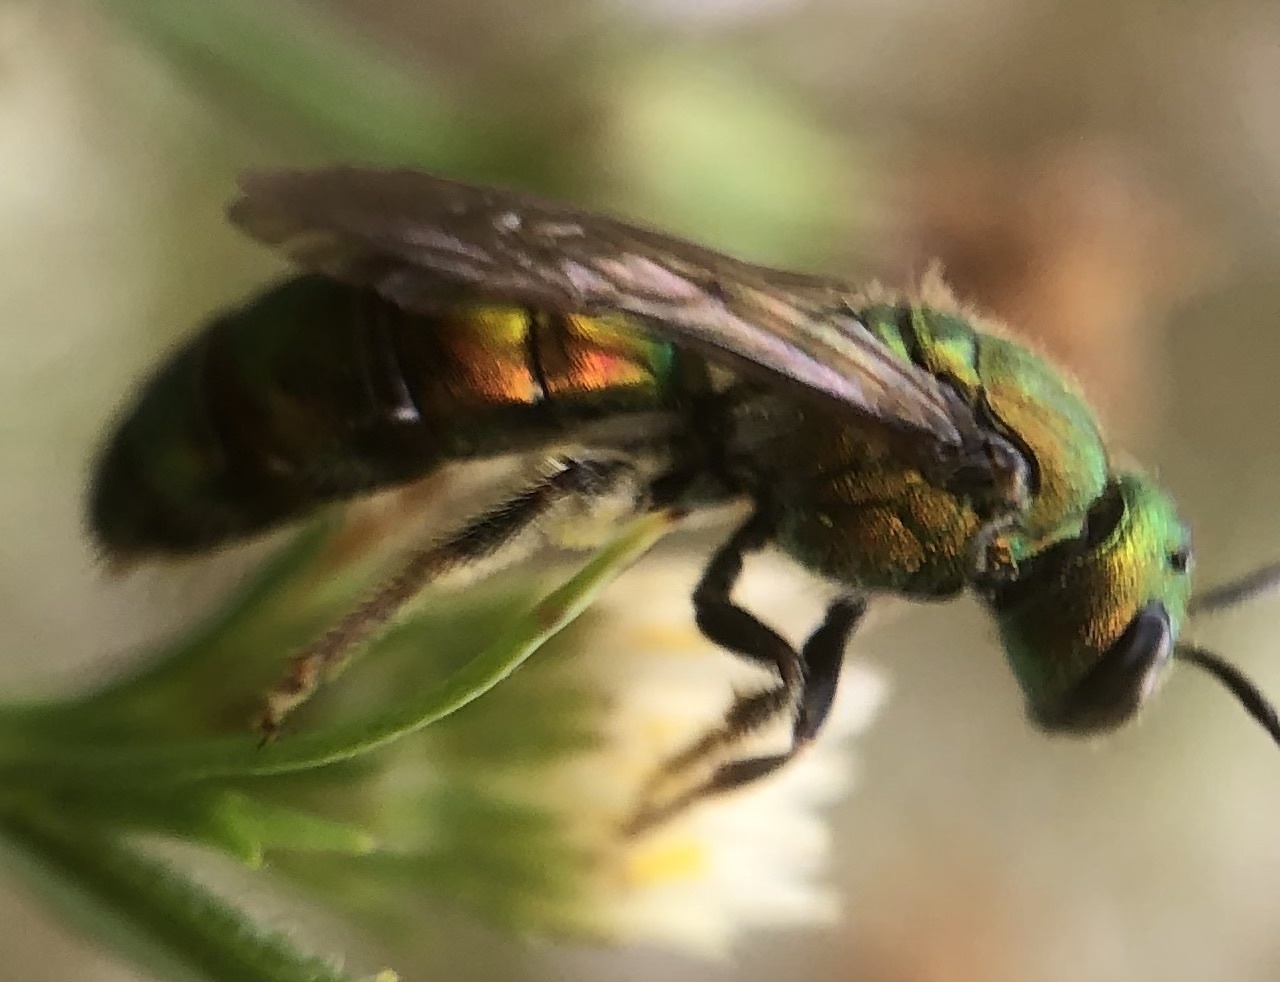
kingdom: Animalia
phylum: Arthropoda
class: Insecta
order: Hymenoptera
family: Halictidae
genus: Augochlora
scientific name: Augochlora pura
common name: Pure green sweat bee
